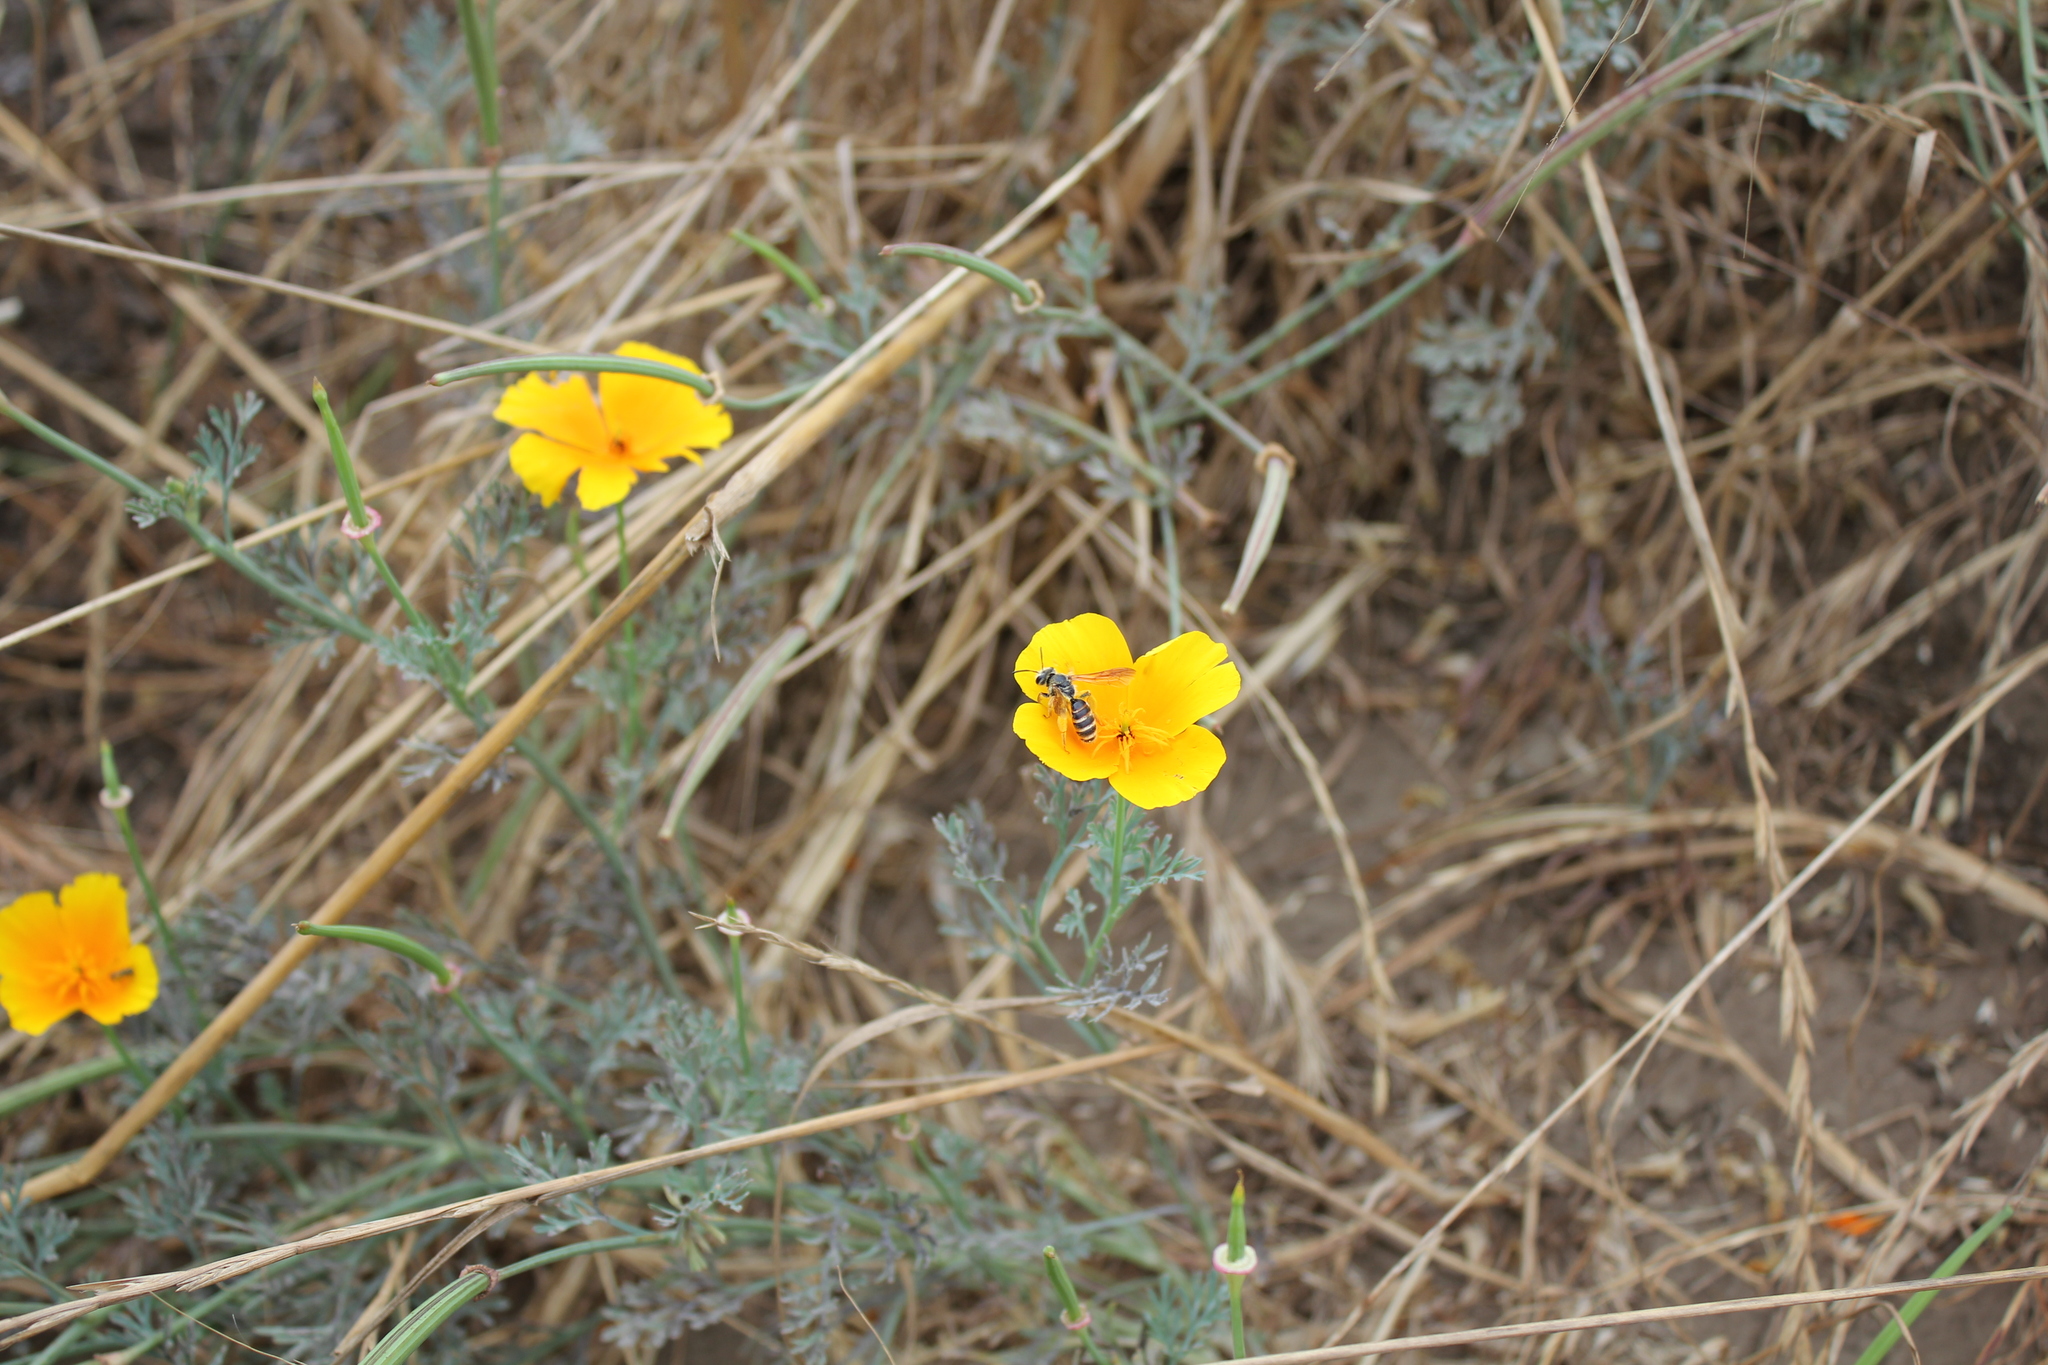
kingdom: Animalia
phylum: Arthropoda
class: Insecta
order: Hymenoptera
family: Andrenidae
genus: Andrena
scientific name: Andrena
